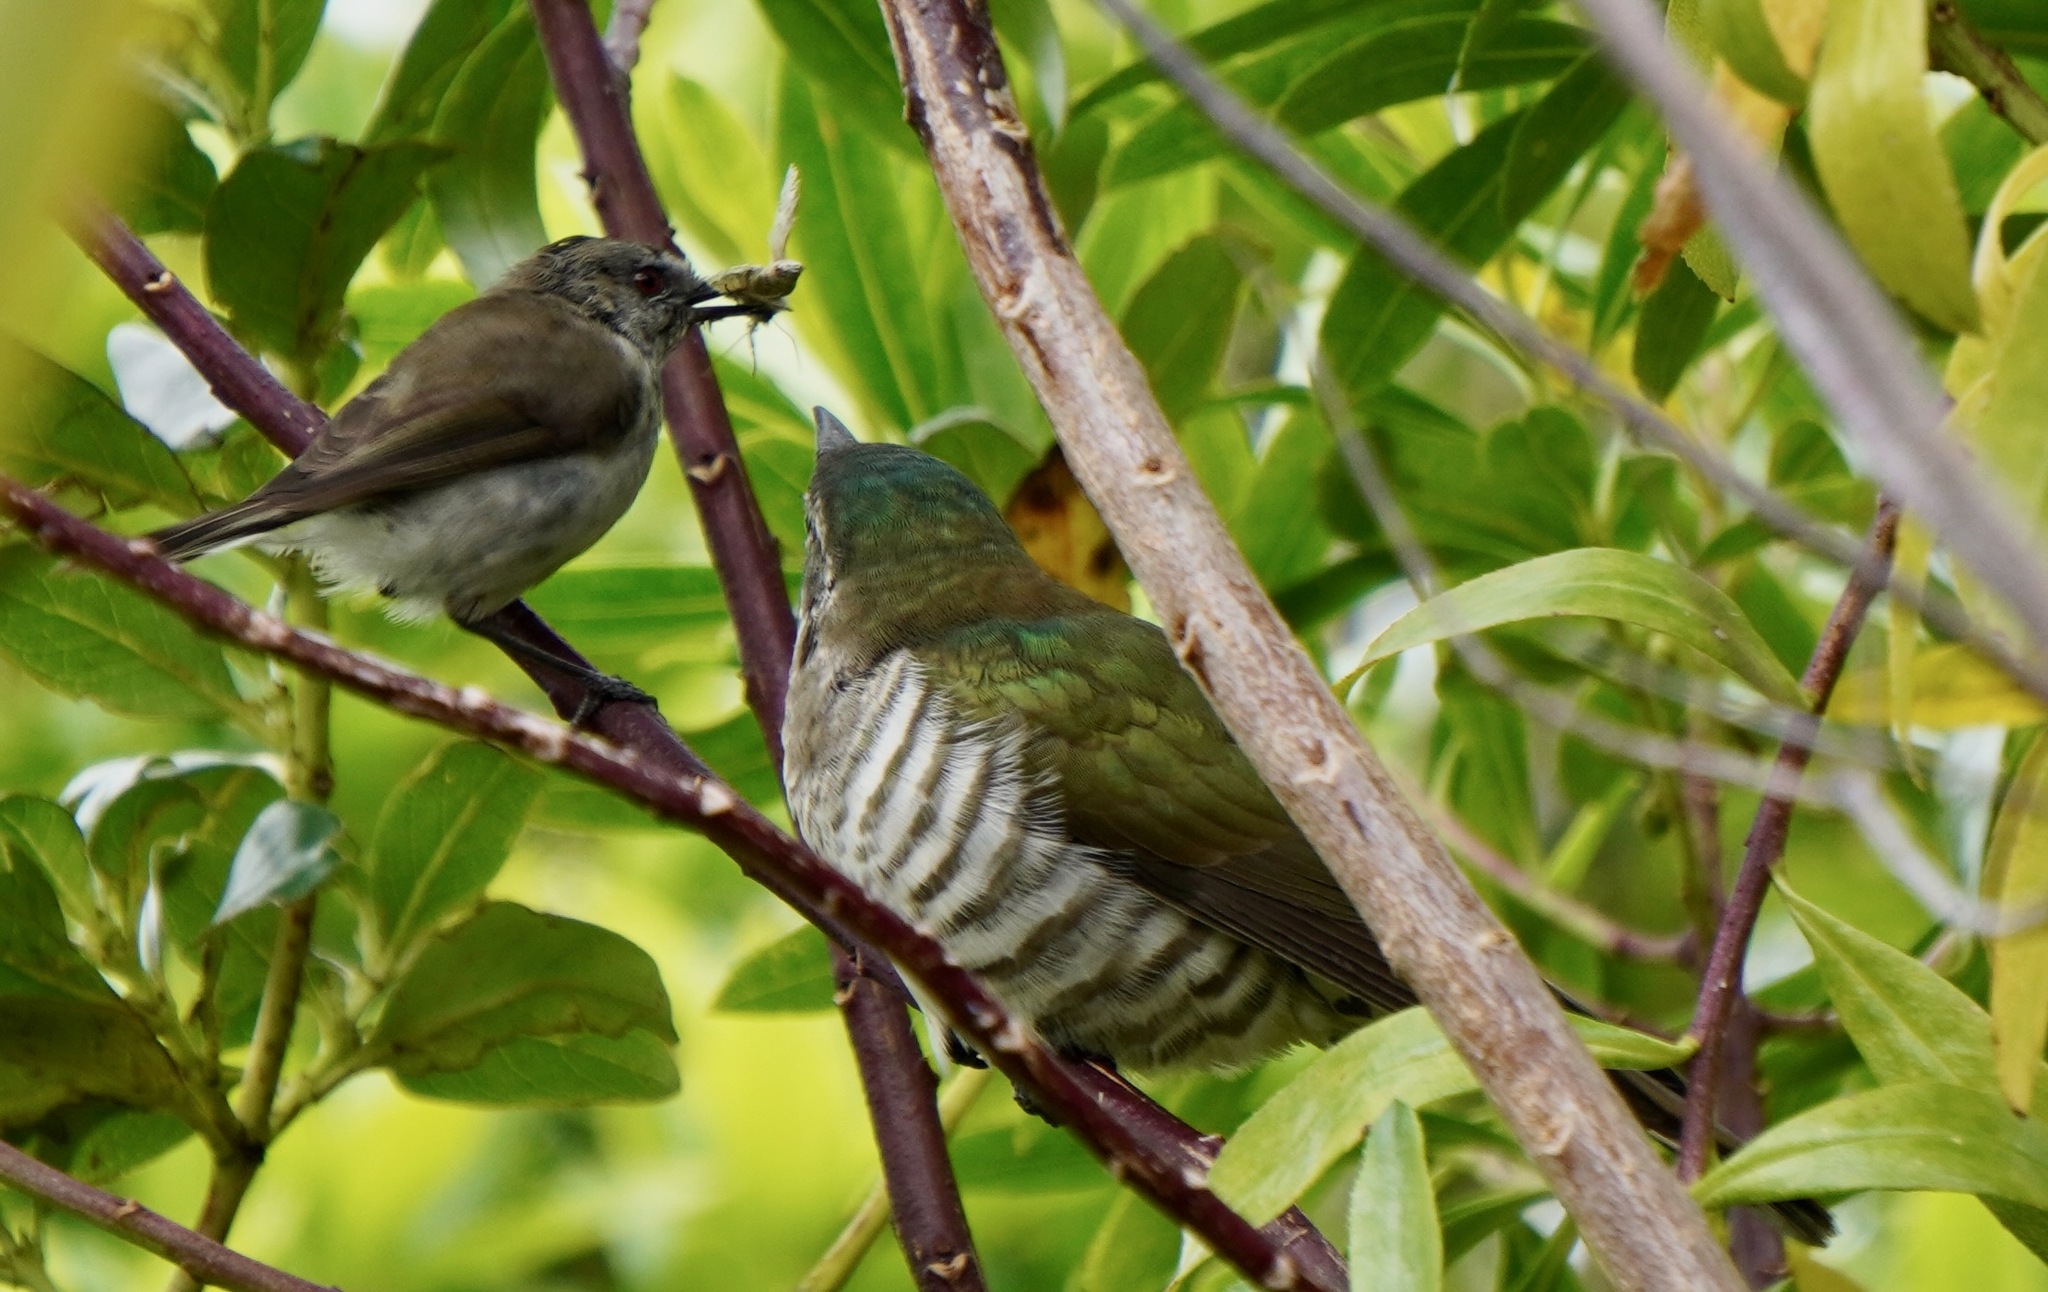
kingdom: Animalia
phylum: Chordata
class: Aves
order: Passeriformes
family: Acanthizidae
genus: Gerygone
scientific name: Gerygone igata
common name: Grey gerygone
